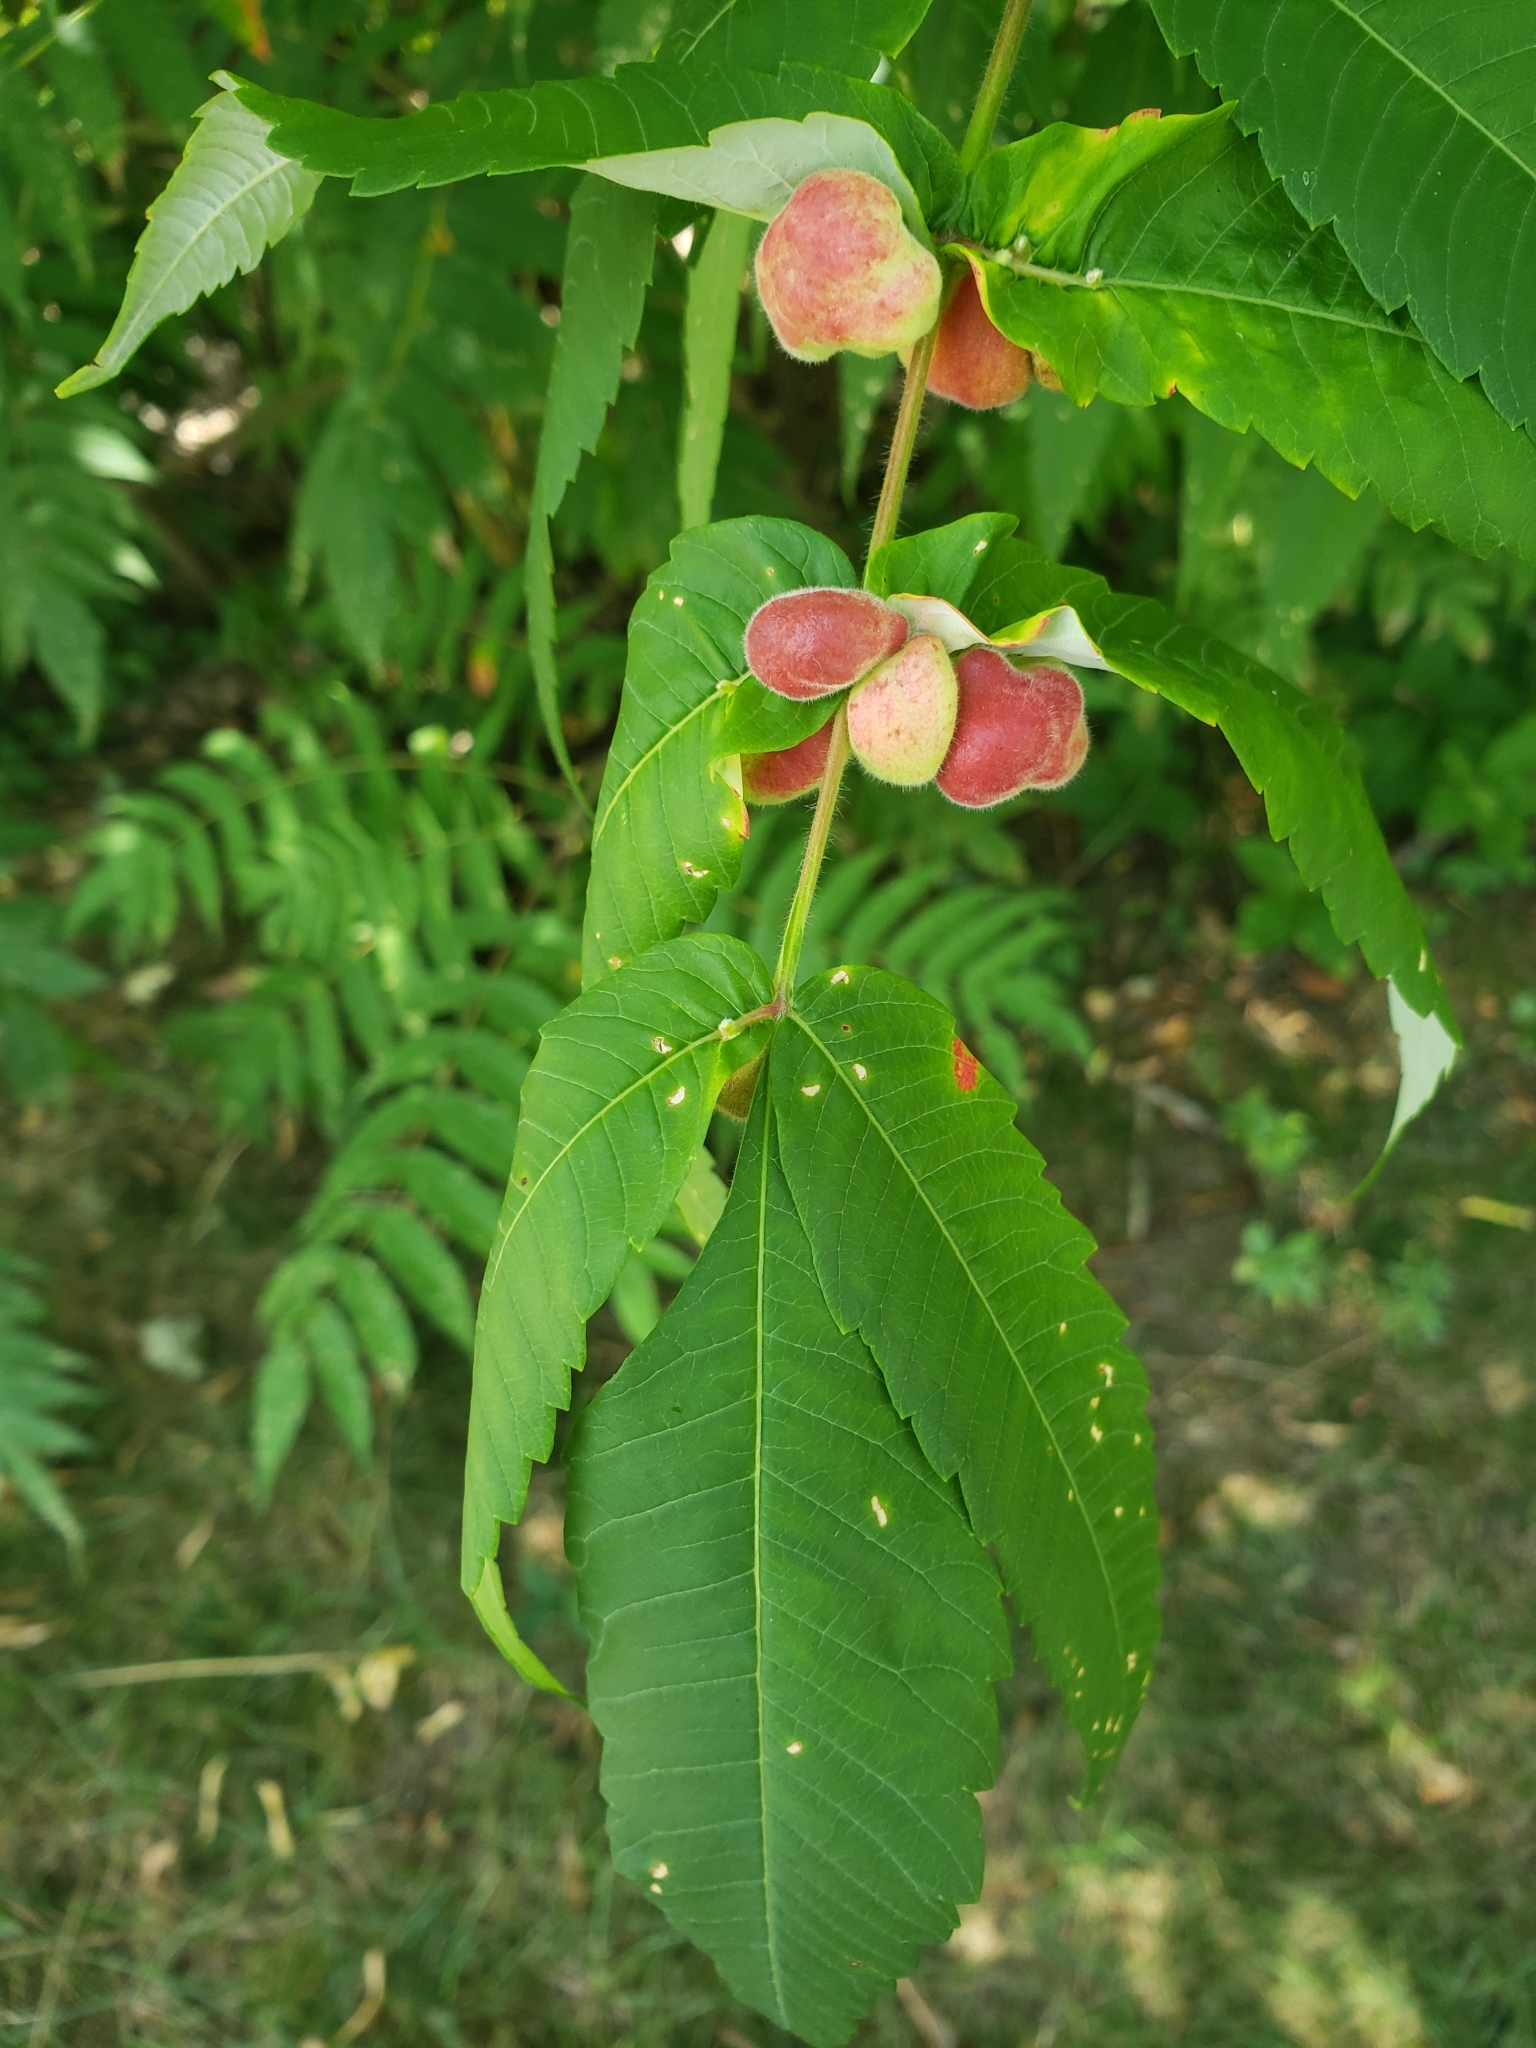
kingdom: Animalia
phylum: Arthropoda
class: Insecta
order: Hemiptera
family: Aphididae
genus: Melaphis
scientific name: Melaphis rhois
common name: Sumac gall aphid
